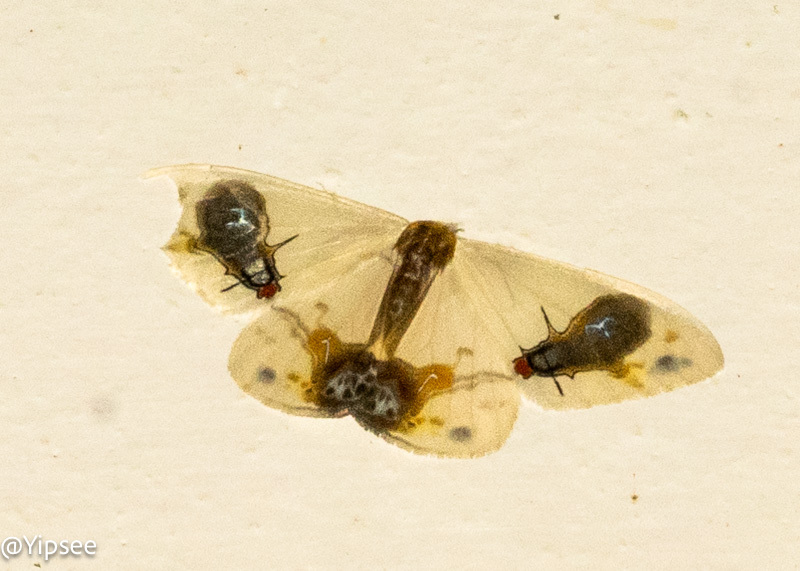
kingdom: Animalia
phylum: Arthropoda
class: Insecta
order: Lepidoptera
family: Drepanidae
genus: Macrocilix
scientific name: Macrocilix maia
